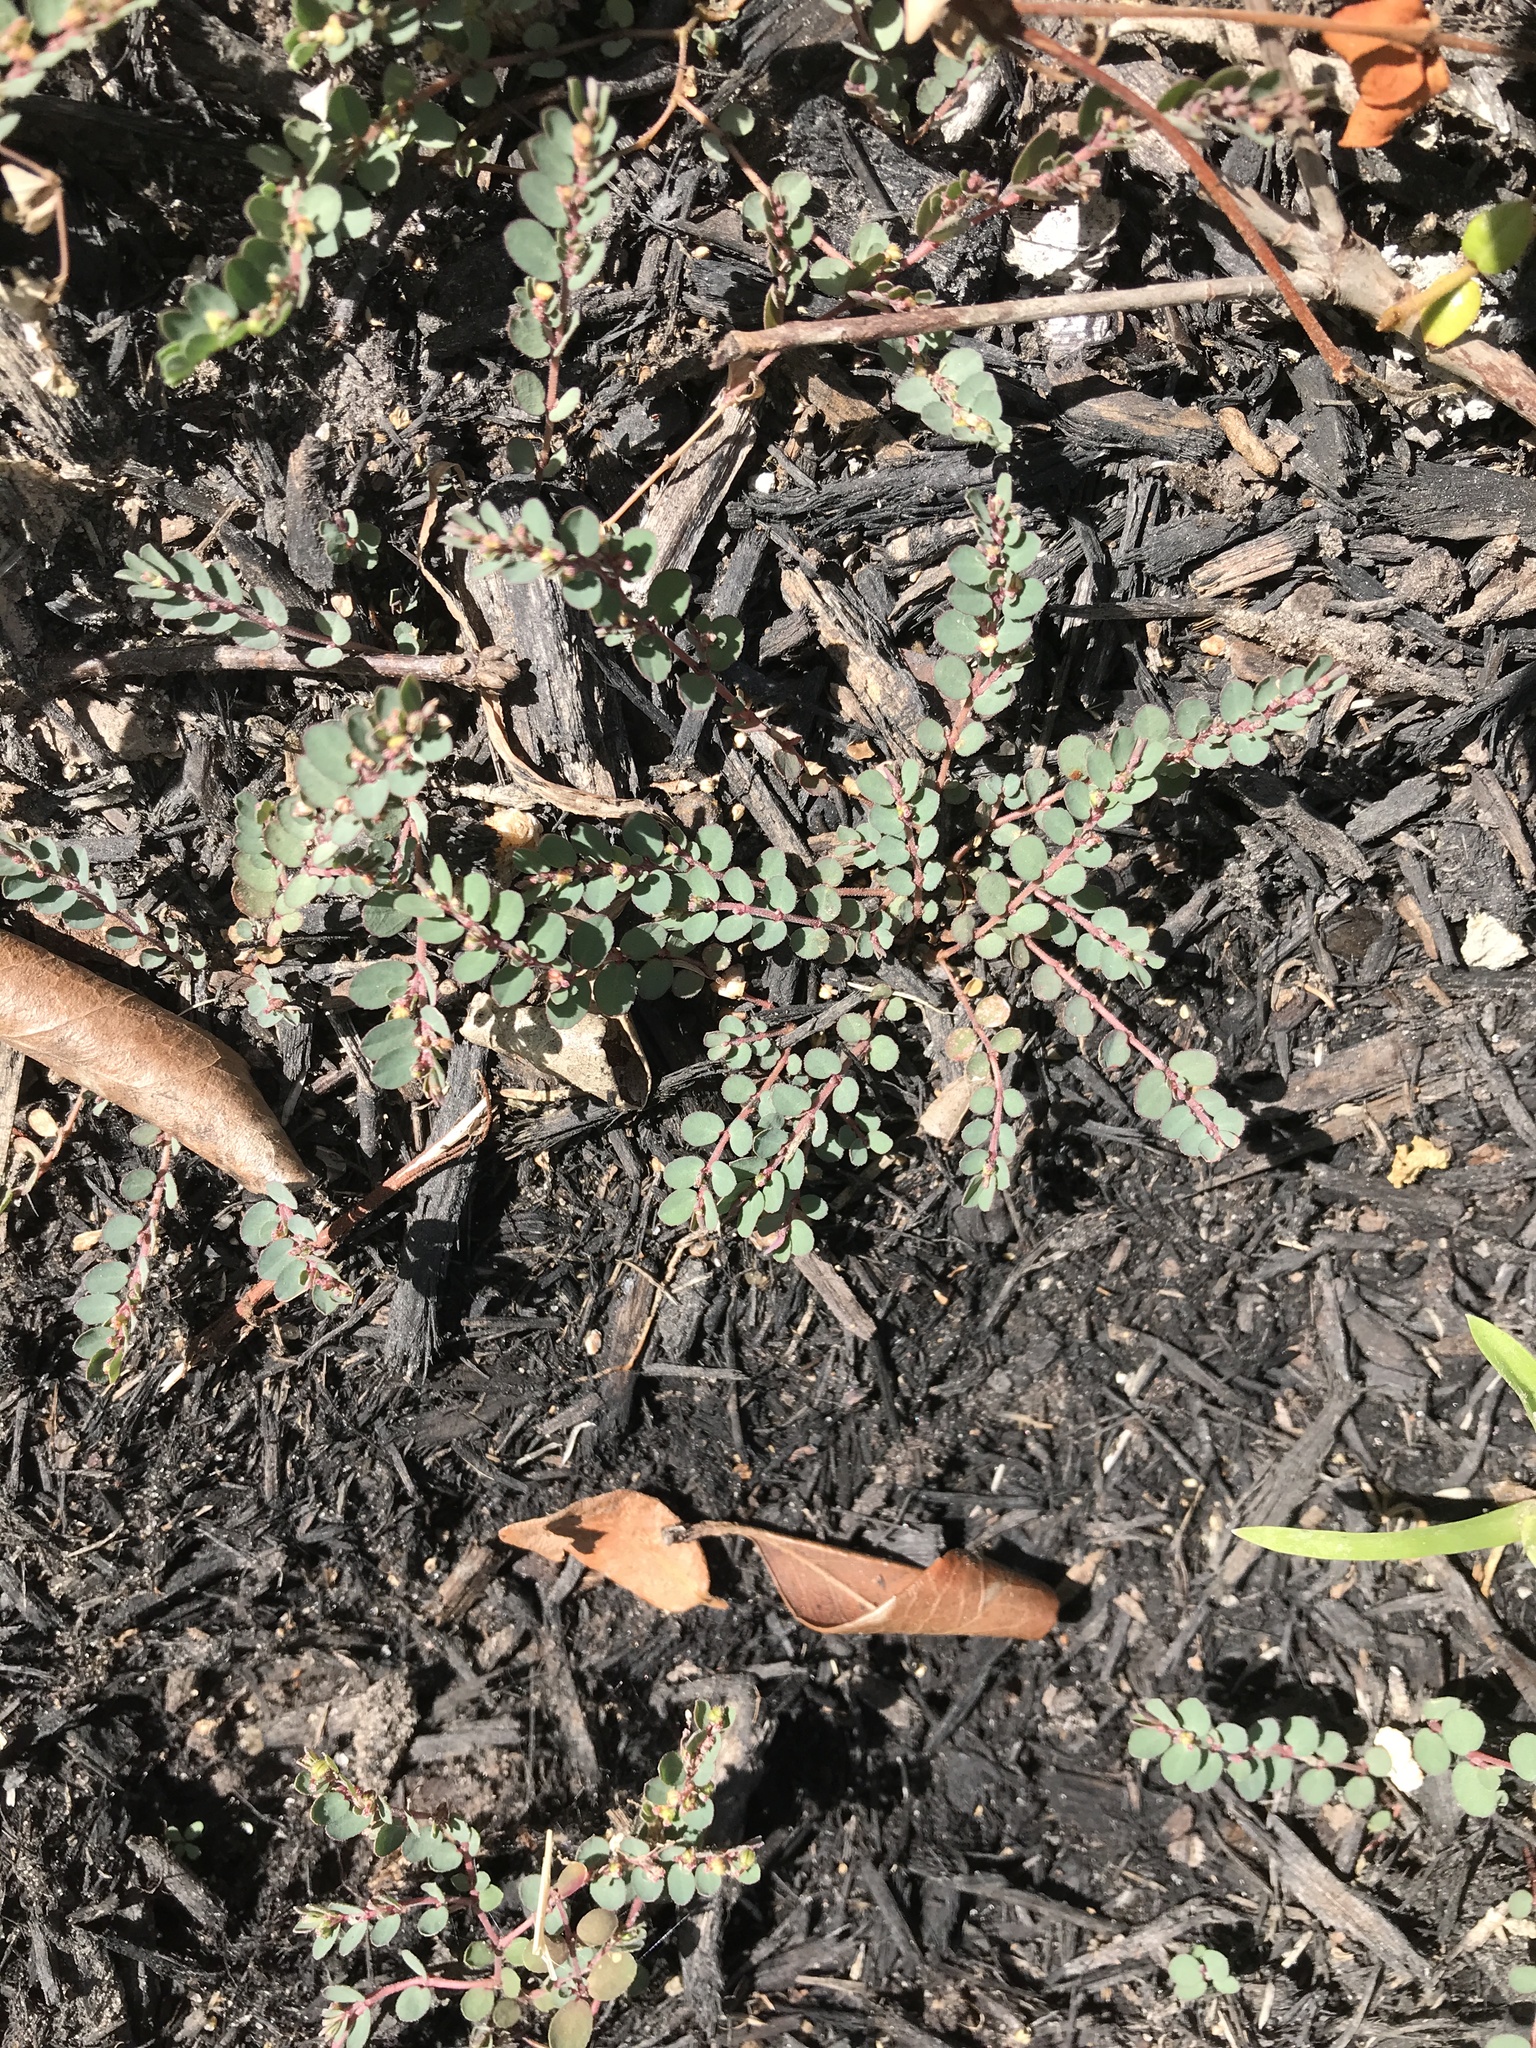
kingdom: Plantae
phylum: Tracheophyta
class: Magnoliopsida
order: Malpighiales
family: Euphorbiaceae
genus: Euphorbia
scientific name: Euphorbia prostrata
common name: Prostrate sandmat
